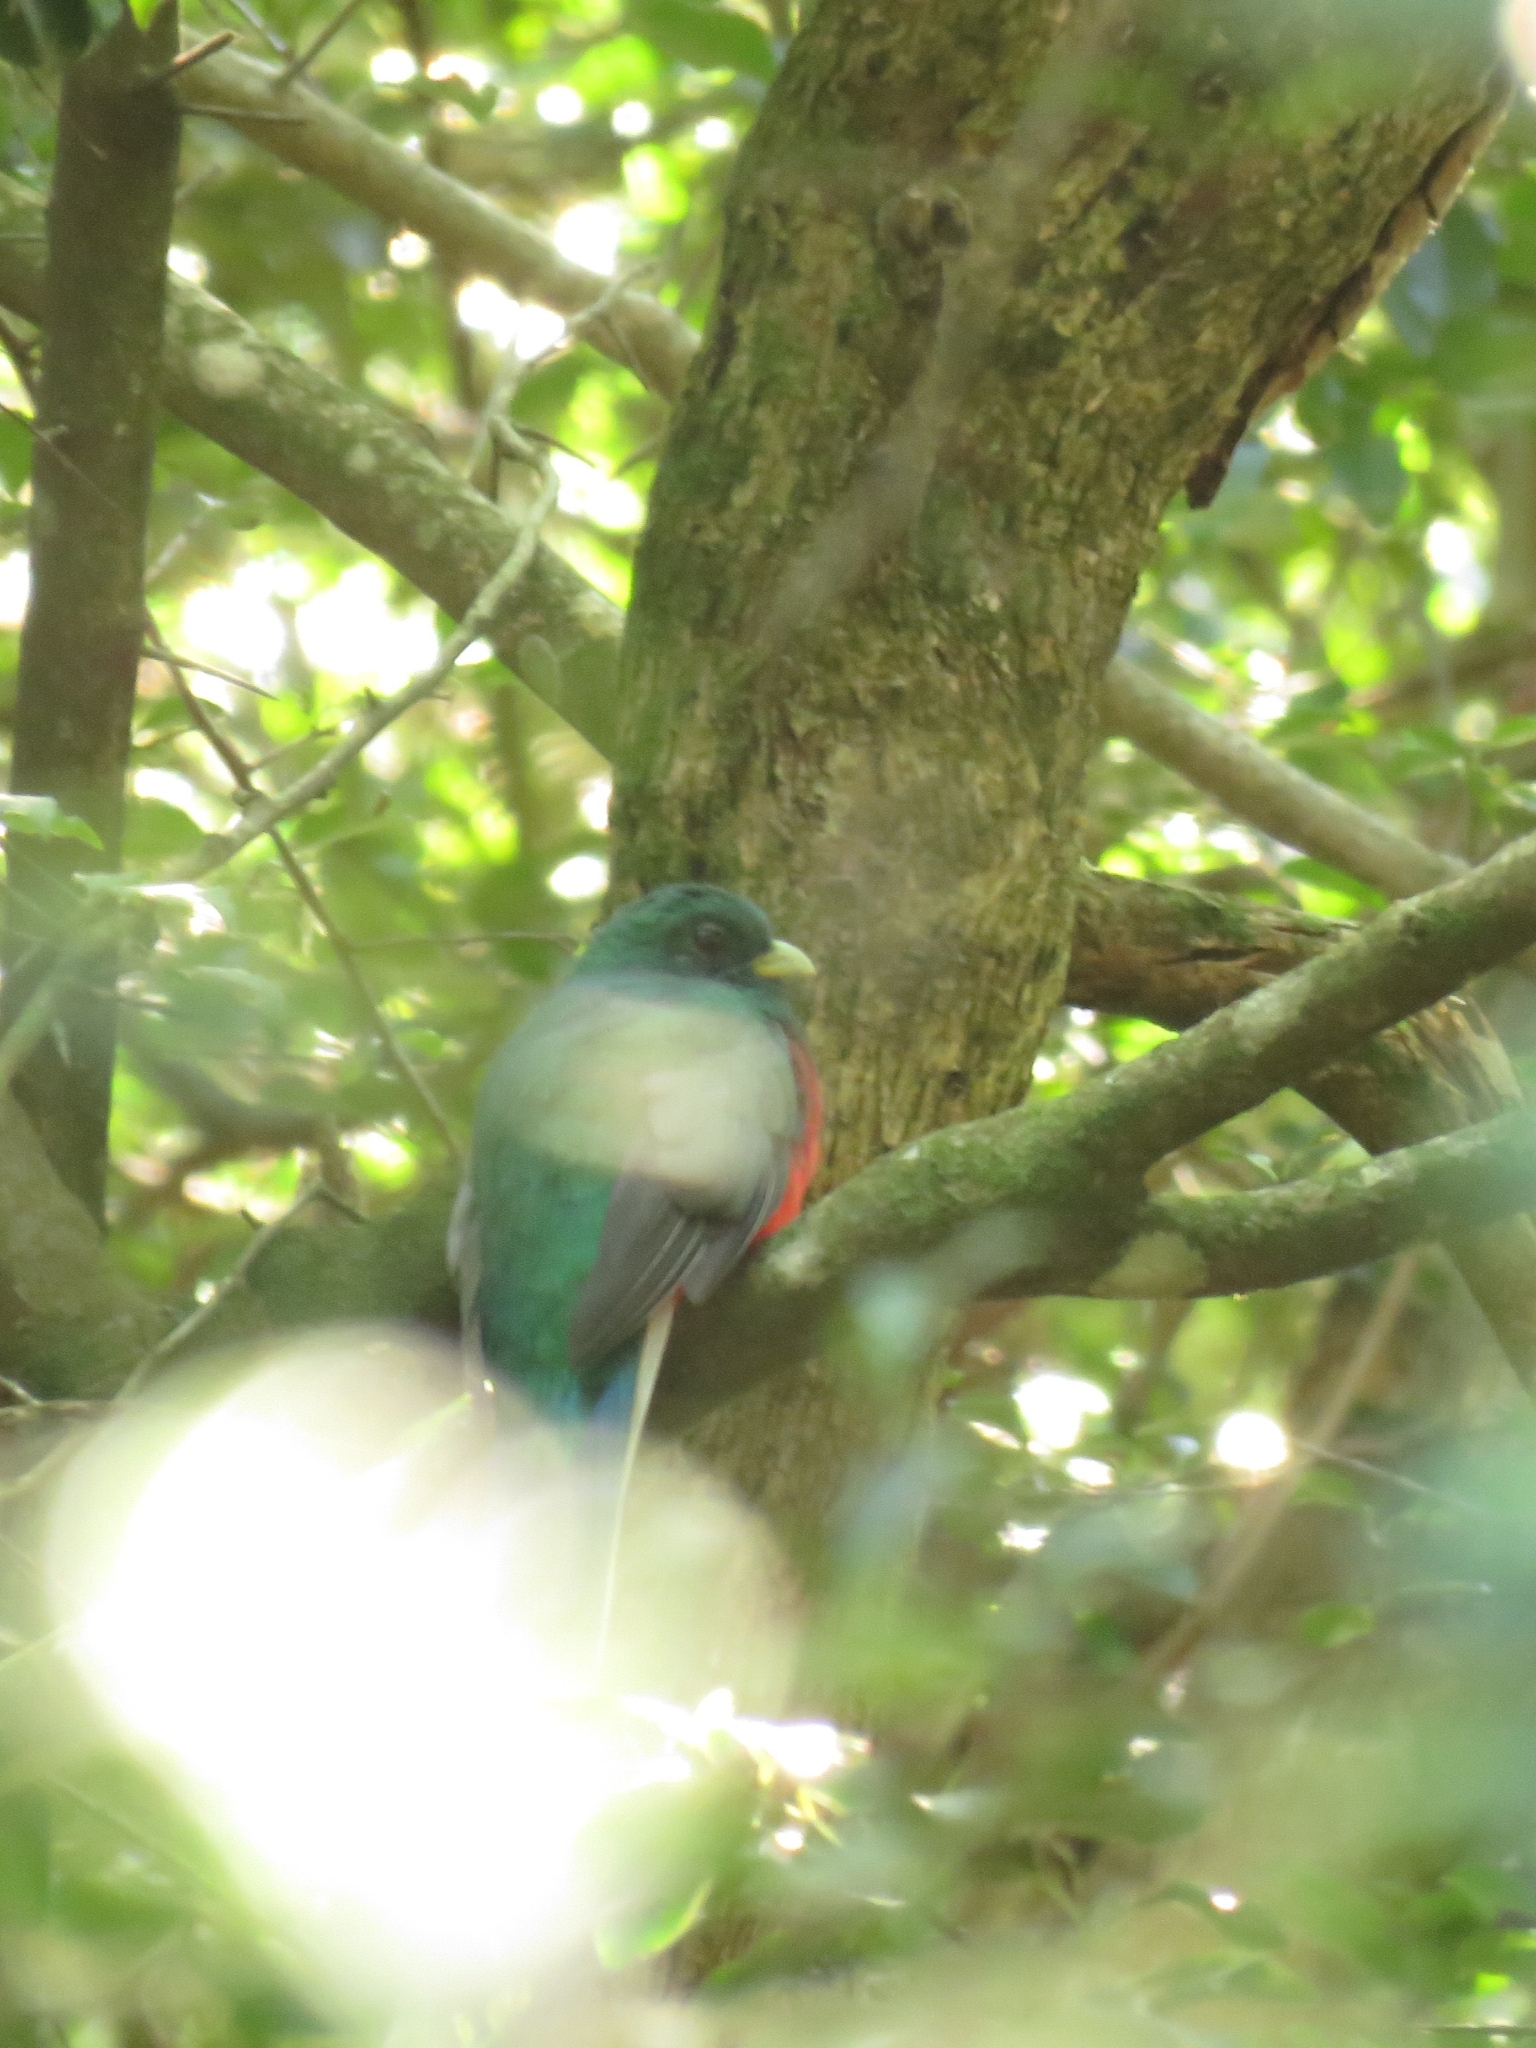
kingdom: Animalia
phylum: Chordata
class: Aves
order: Trogoniformes
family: Trogonidae
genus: Apaloderma
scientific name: Apaloderma narina
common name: Narina trogon
